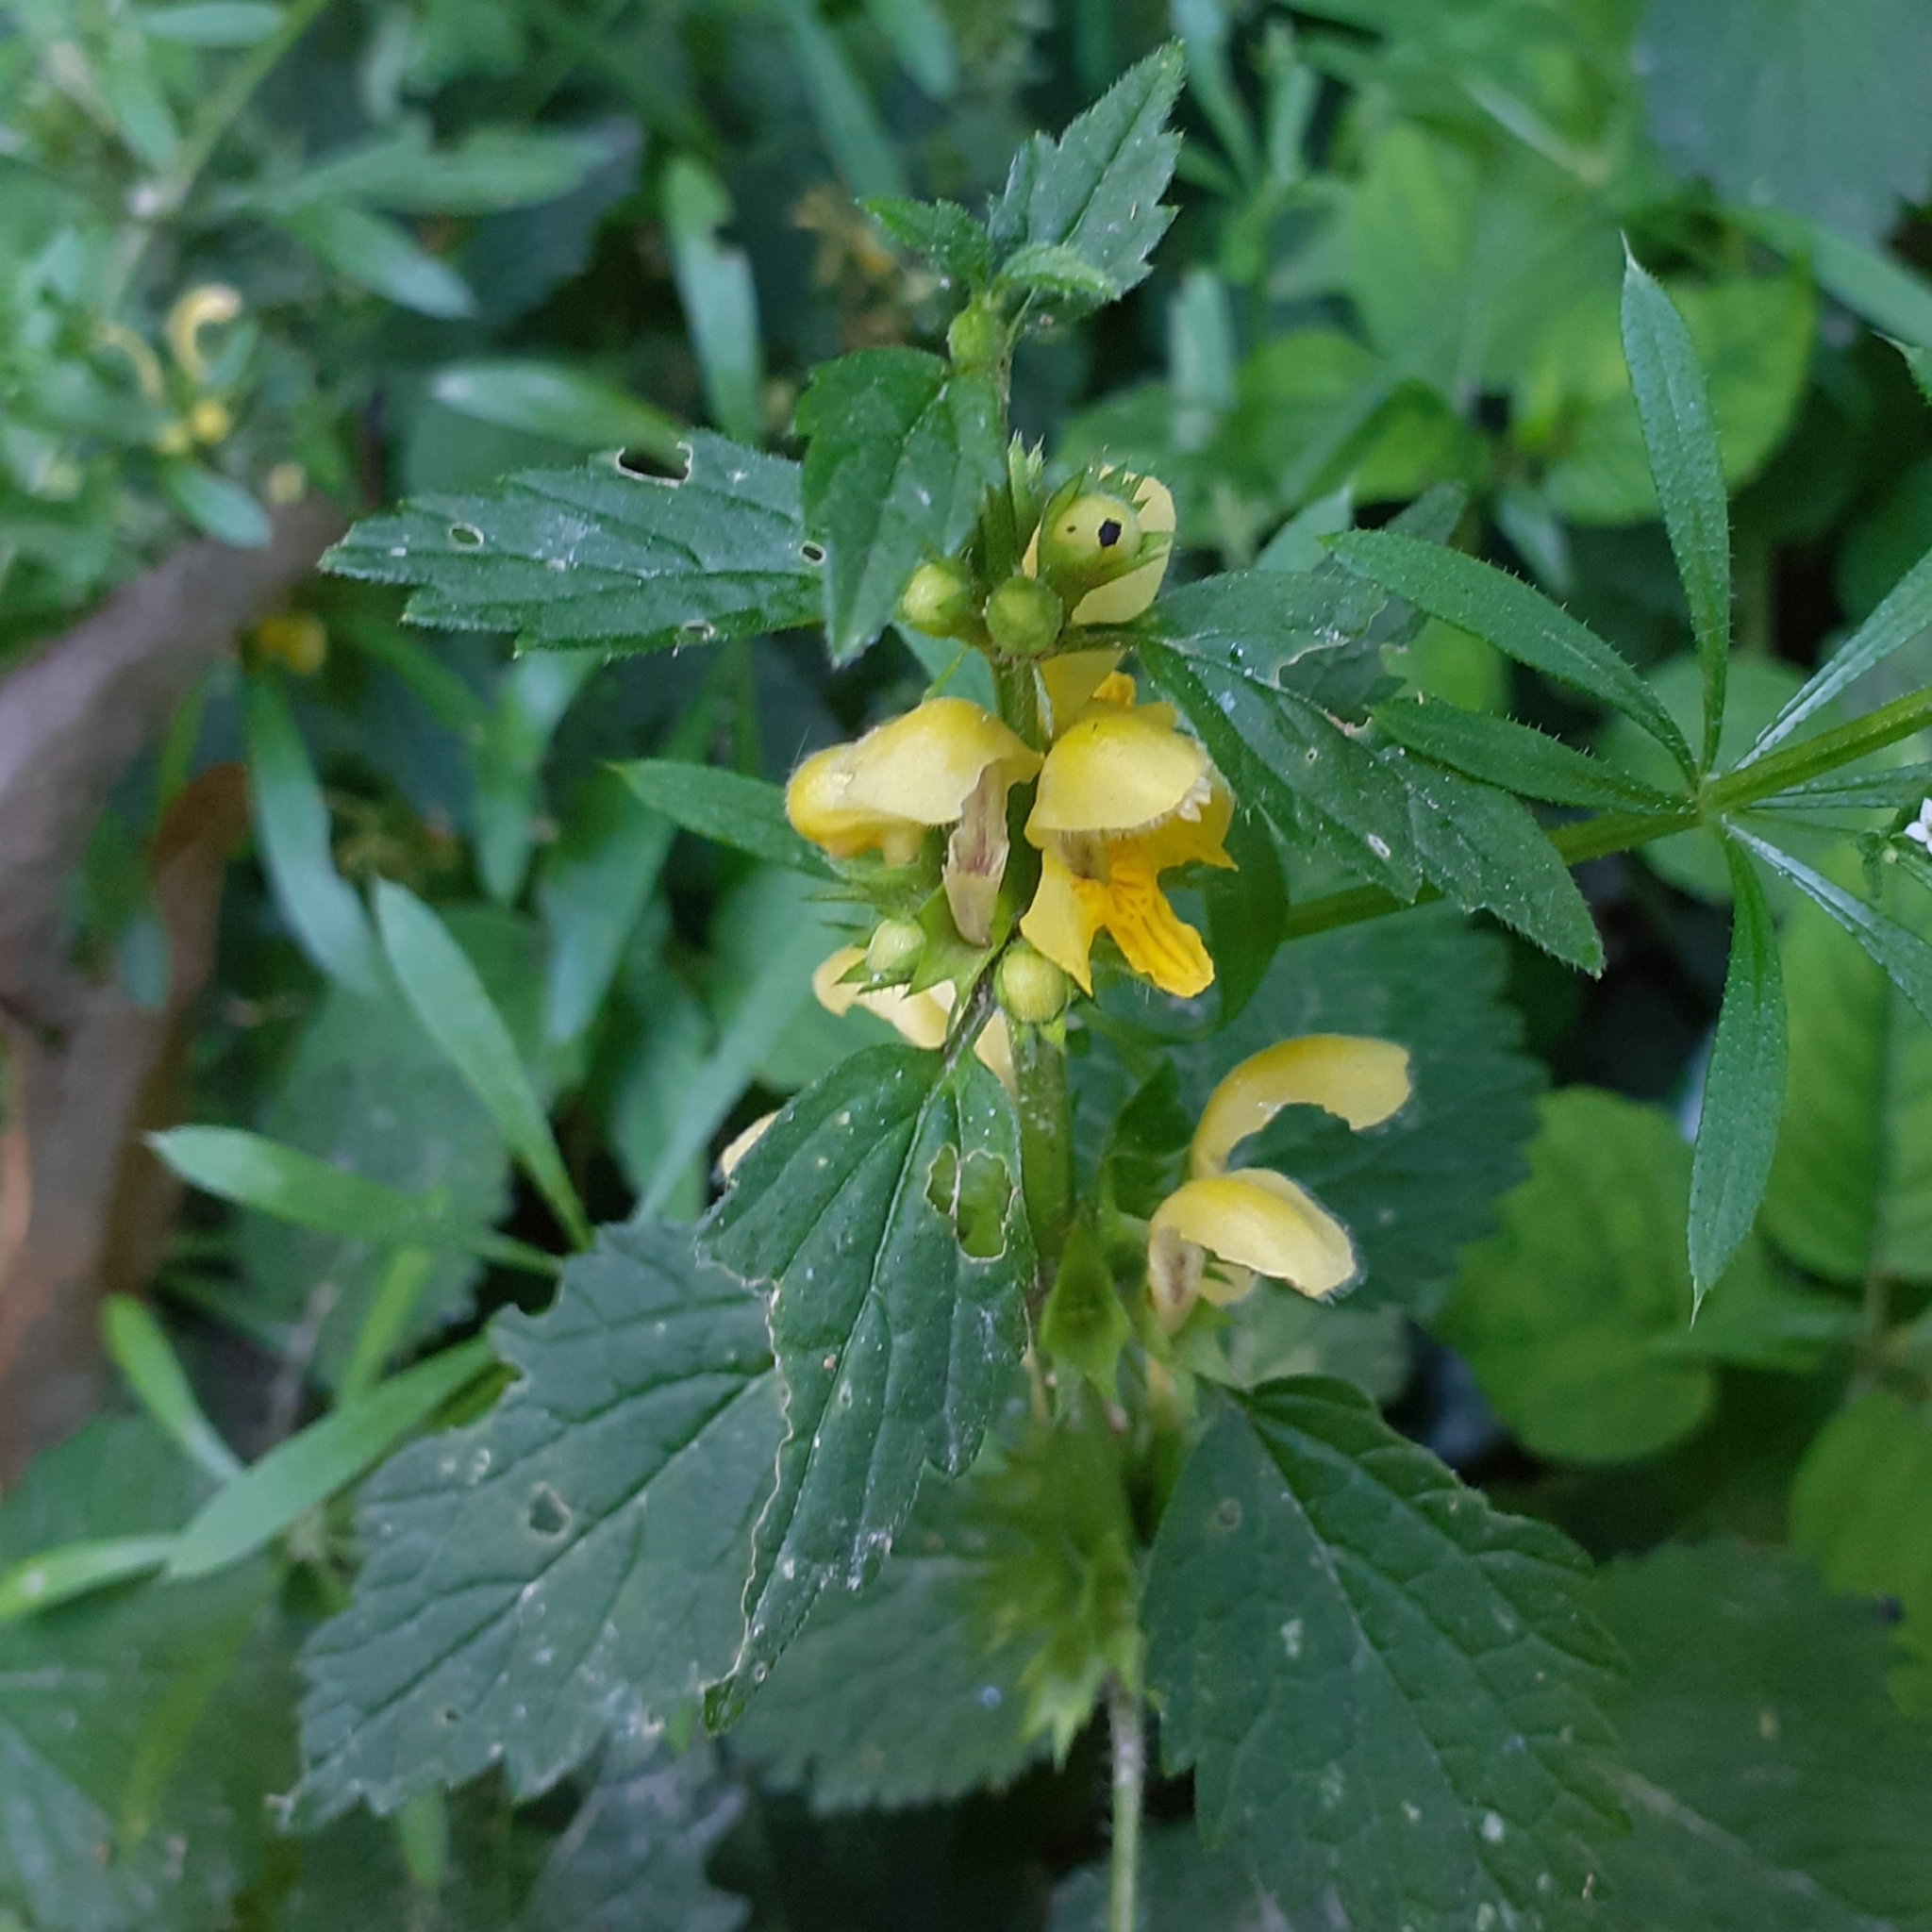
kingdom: Plantae
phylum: Tracheophyta
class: Magnoliopsida
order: Lamiales
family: Lamiaceae
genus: Lamium
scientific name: Lamium galeobdolon
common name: Yellow archangel
